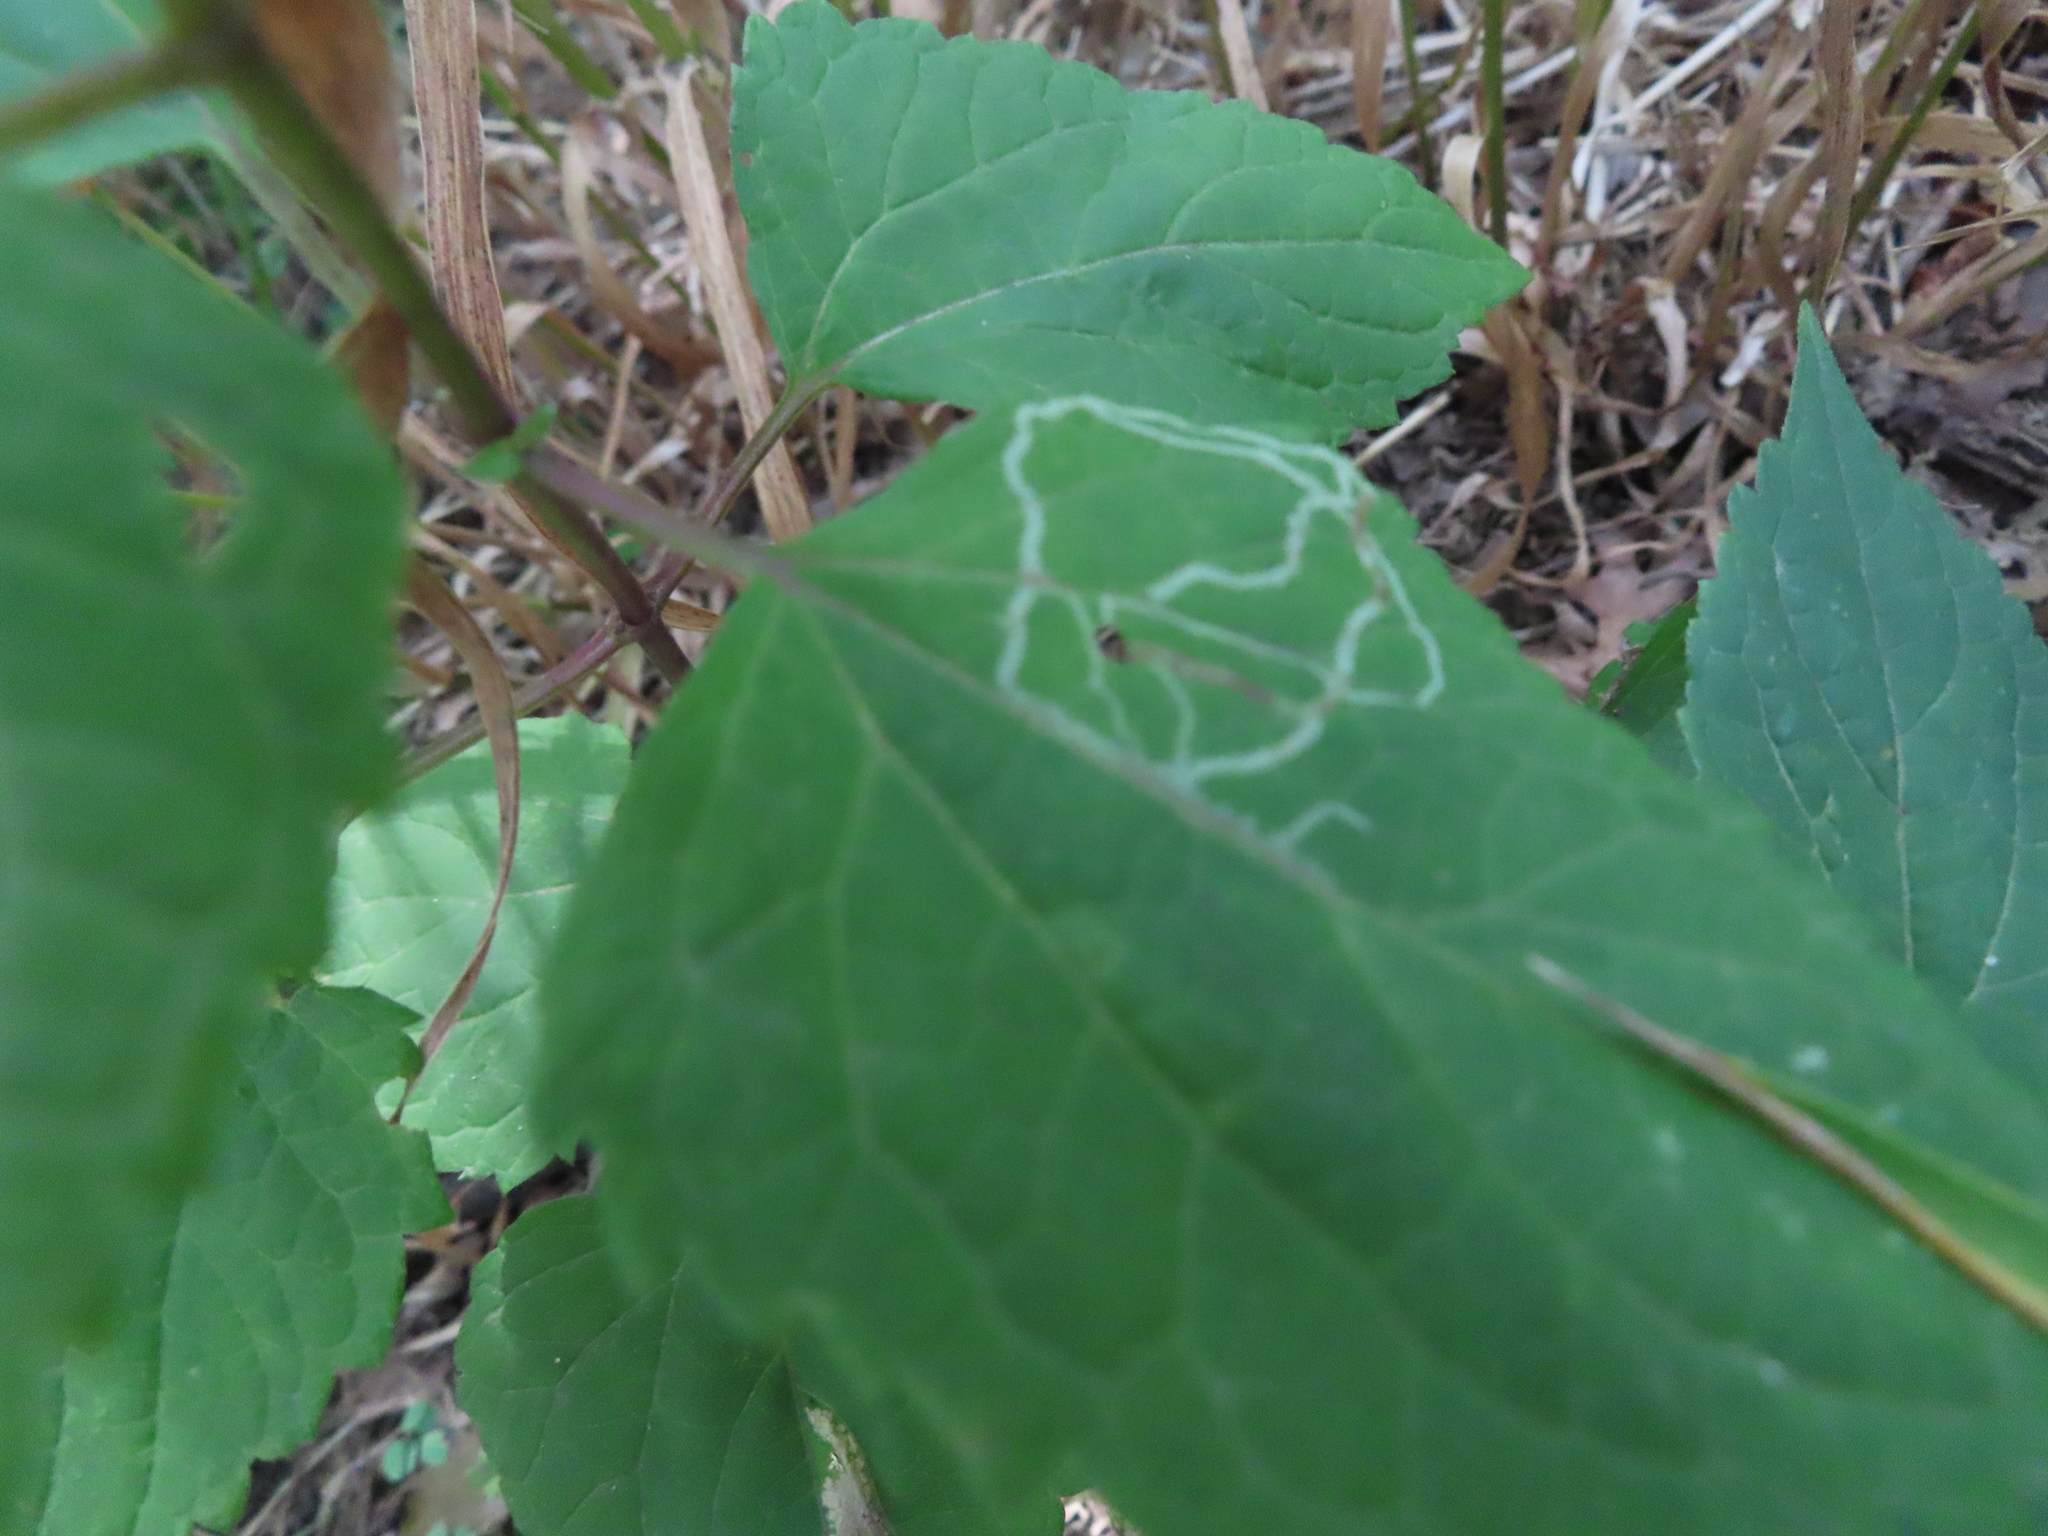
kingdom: Animalia
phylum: Arthropoda
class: Insecta
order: Diptera
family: Agromyzidae
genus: Liriomyza
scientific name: Liriomyza
